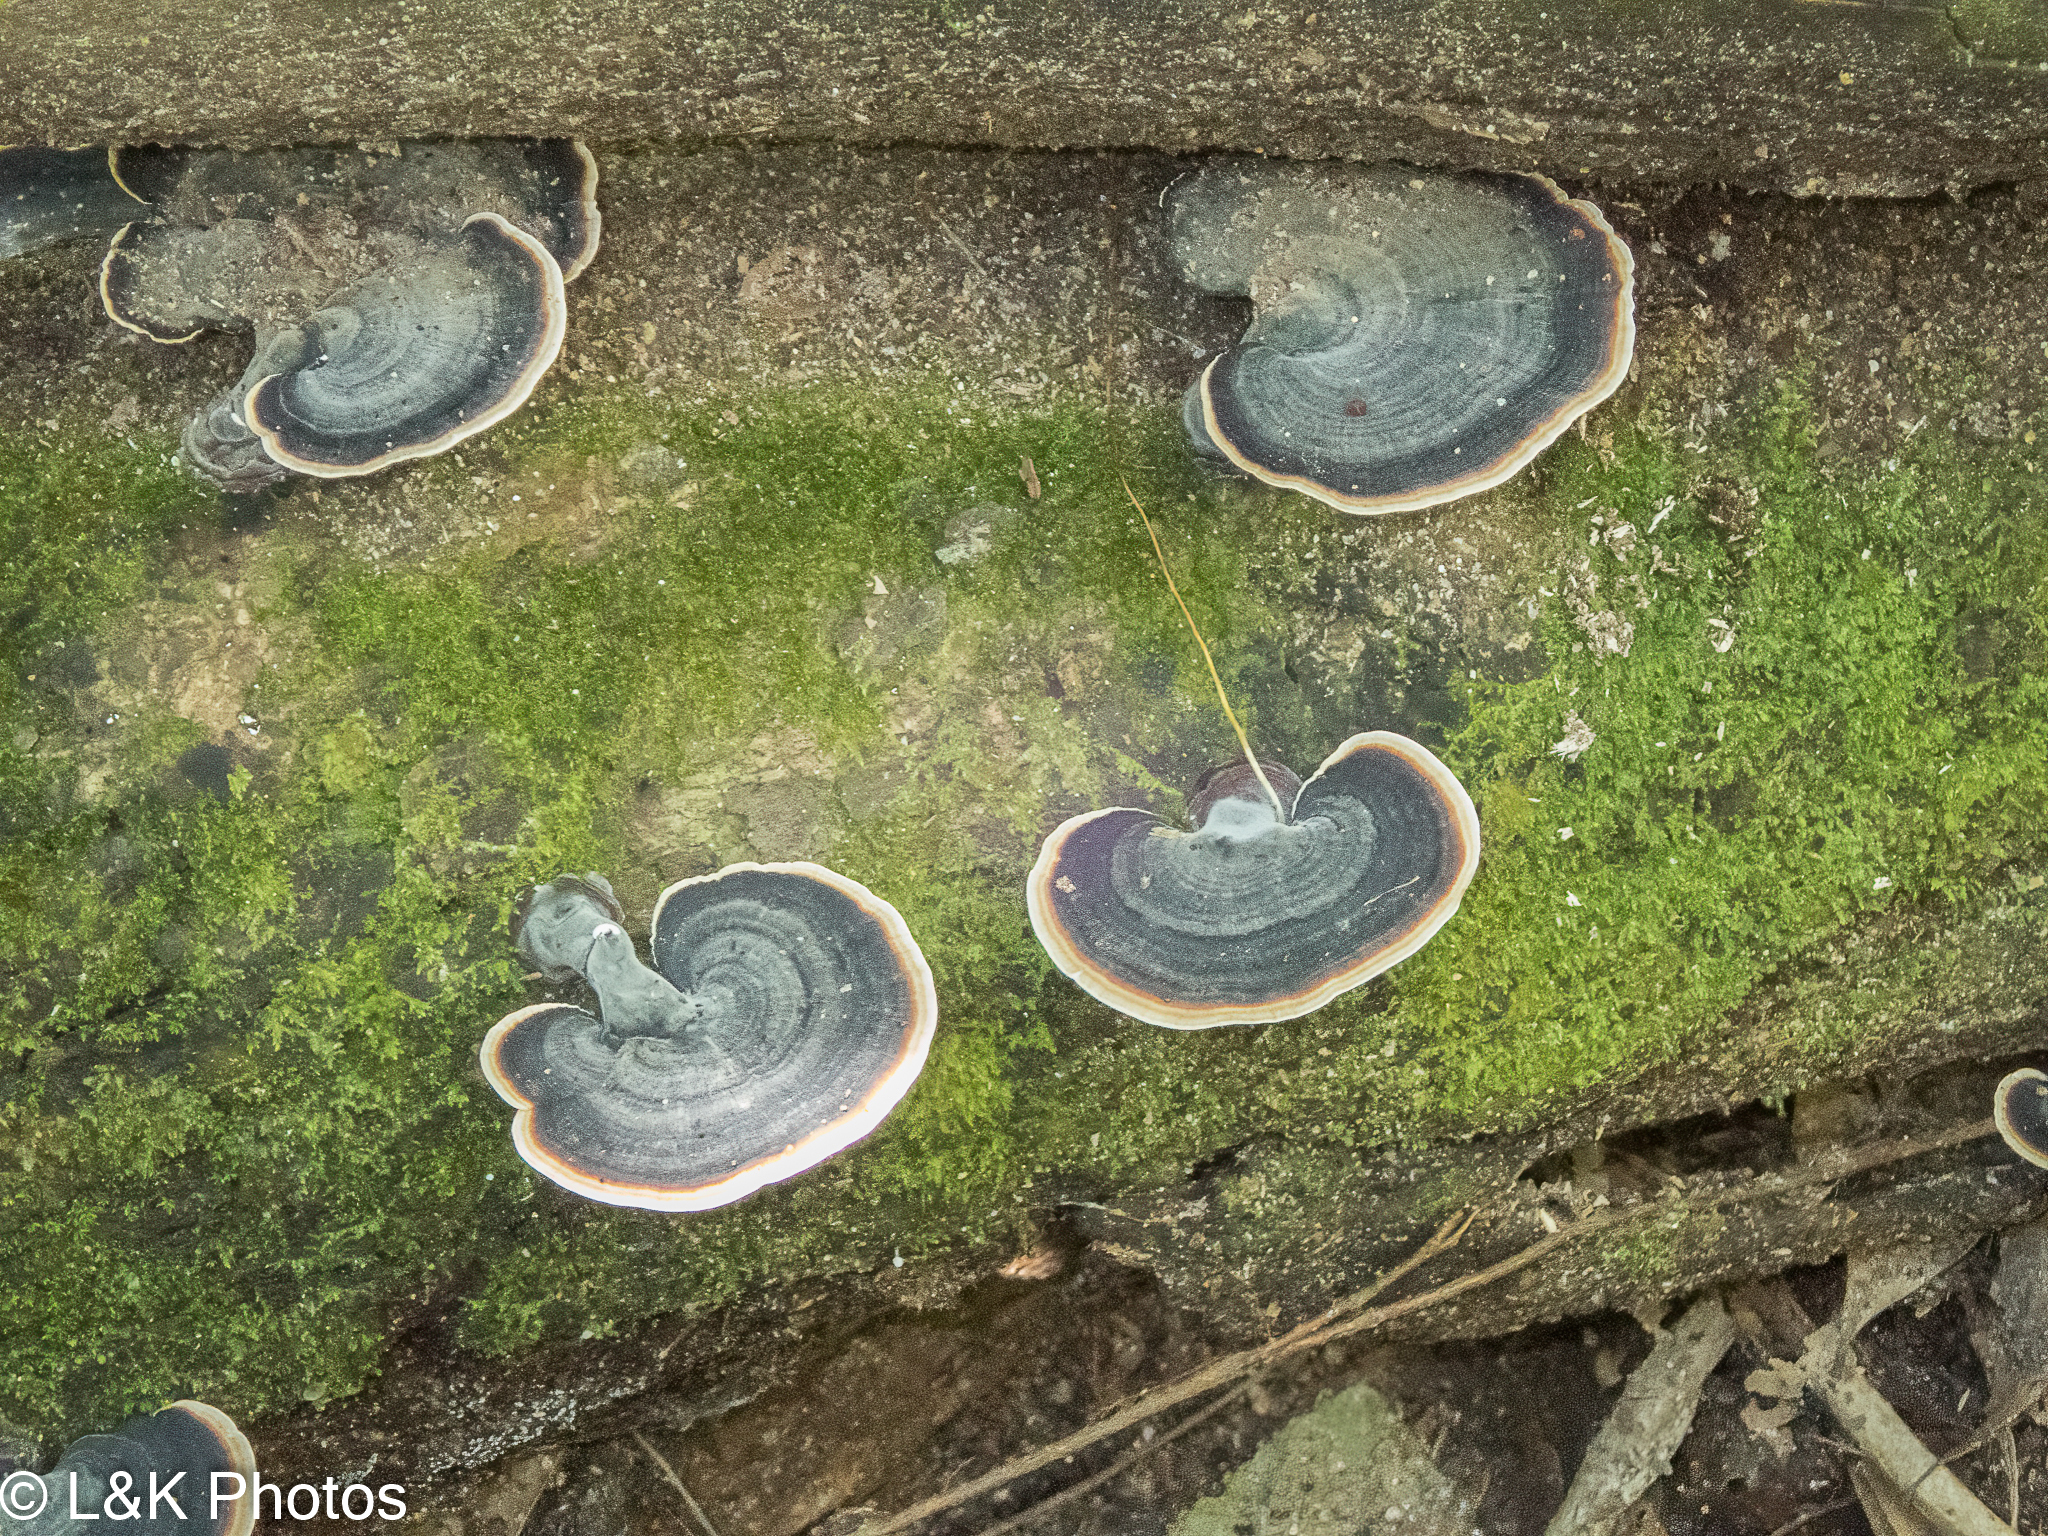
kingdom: Fungi
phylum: Basidiomycota
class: Agaricomycetes
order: Polyporales
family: Polyporaceae
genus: Microporus
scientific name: Microporus affinis
